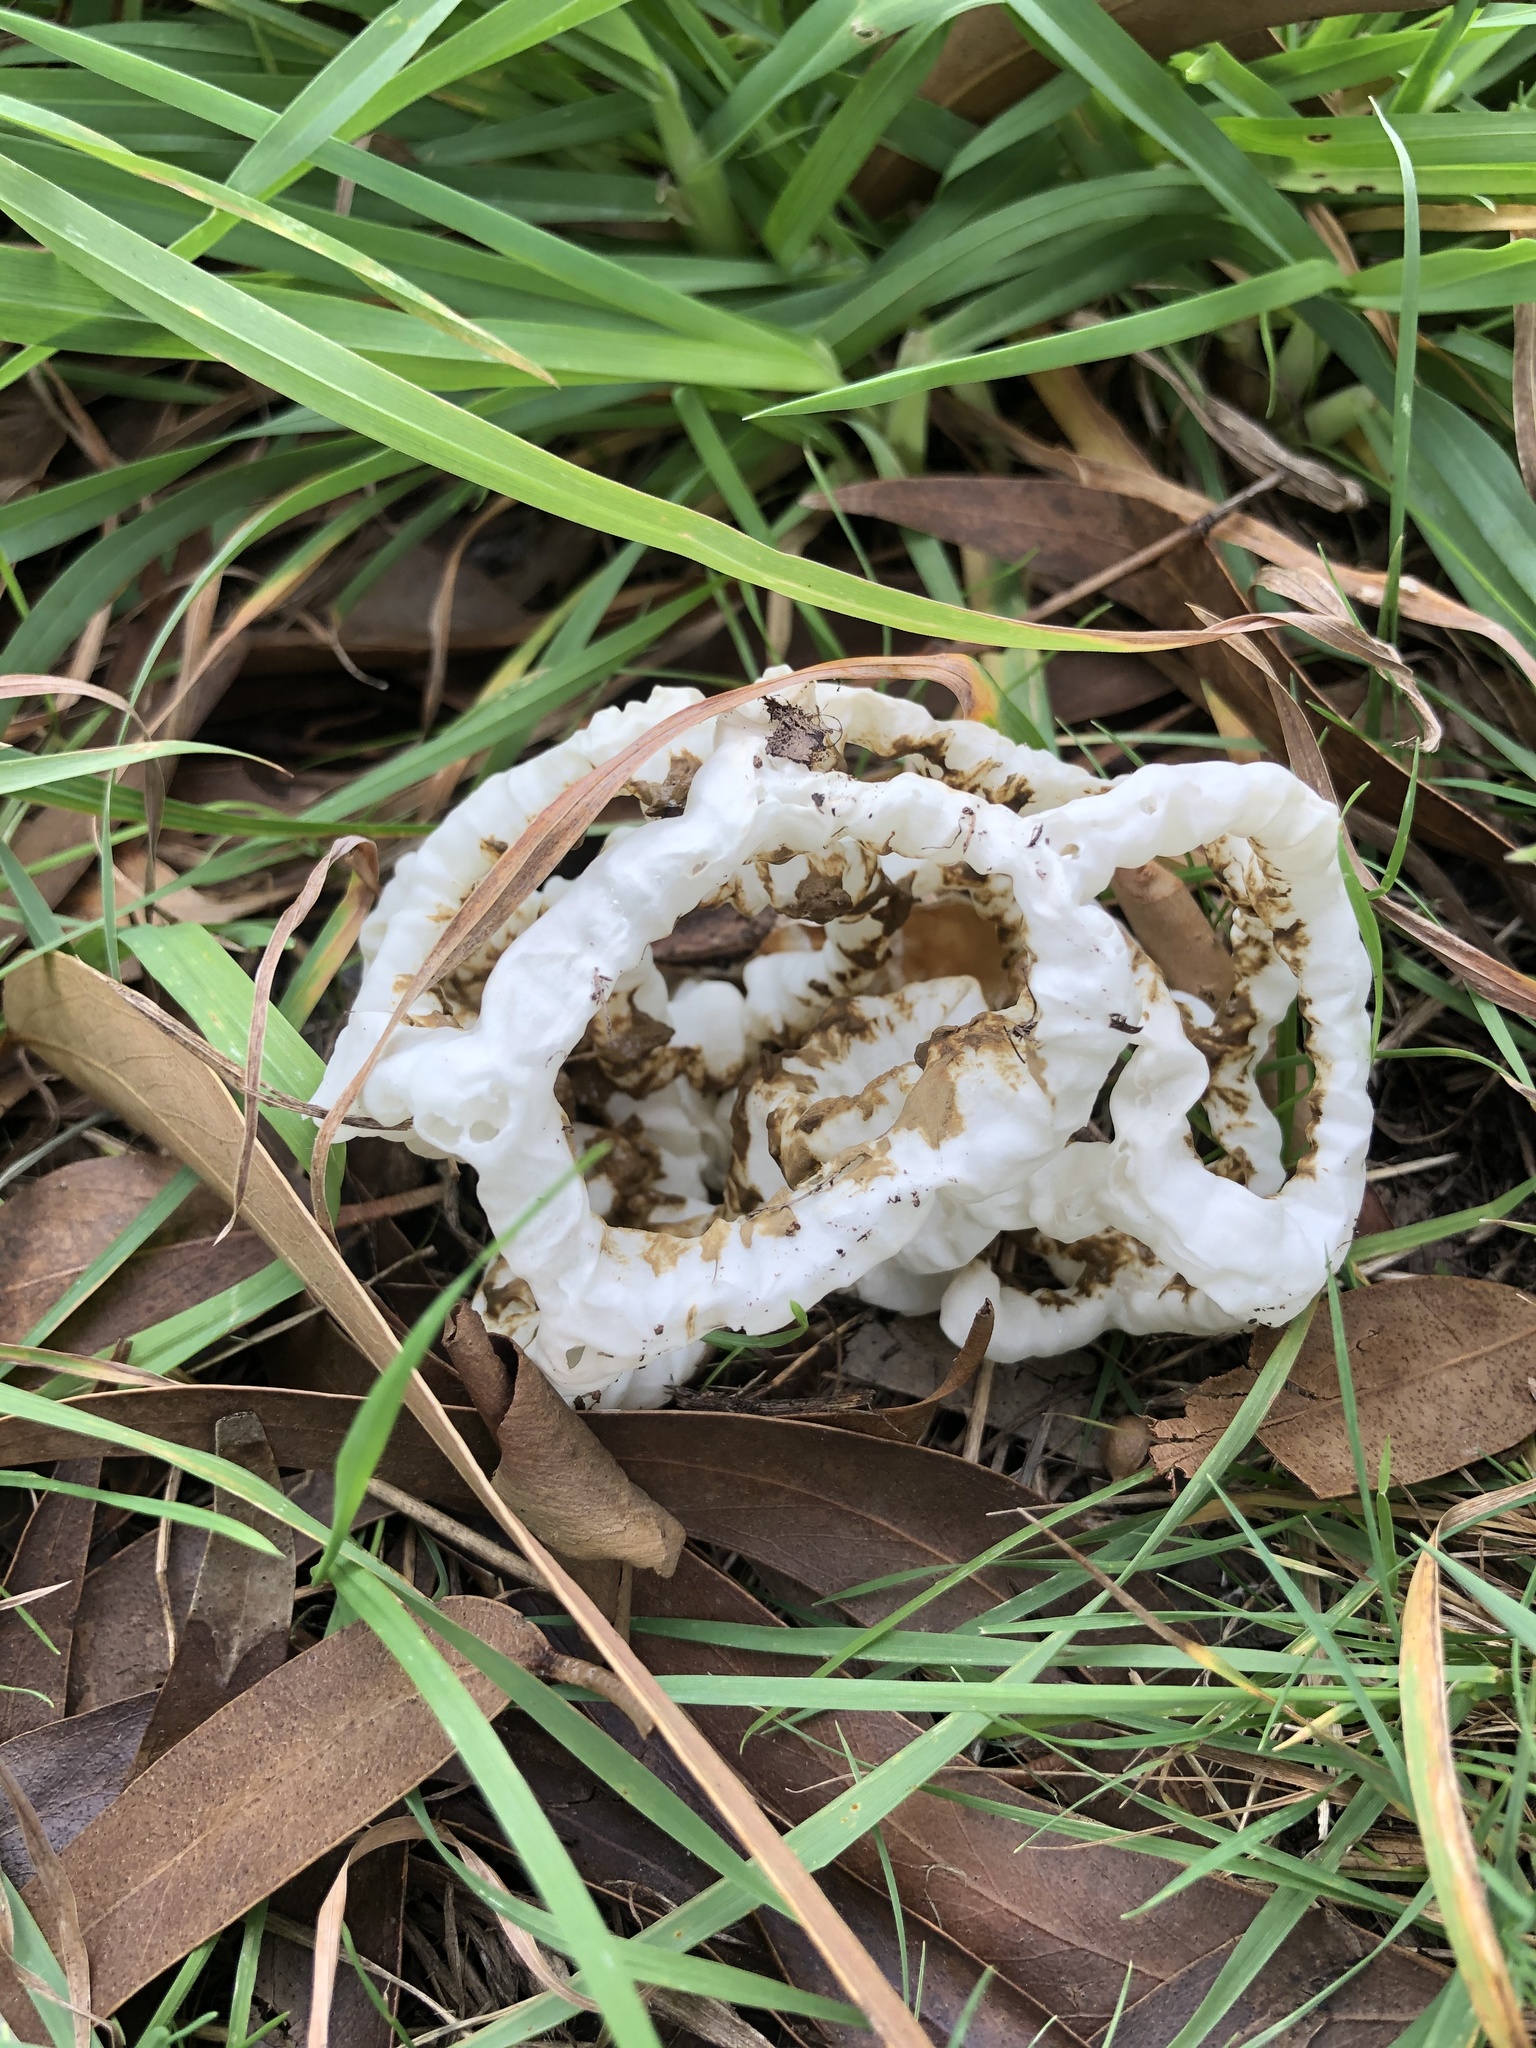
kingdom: Fungi
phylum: Basidiomycota
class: Agaricomycetes
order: Phallales
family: Phallaceae
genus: Ileodictyon
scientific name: Ileodictyon cibarium
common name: Basket fungus
